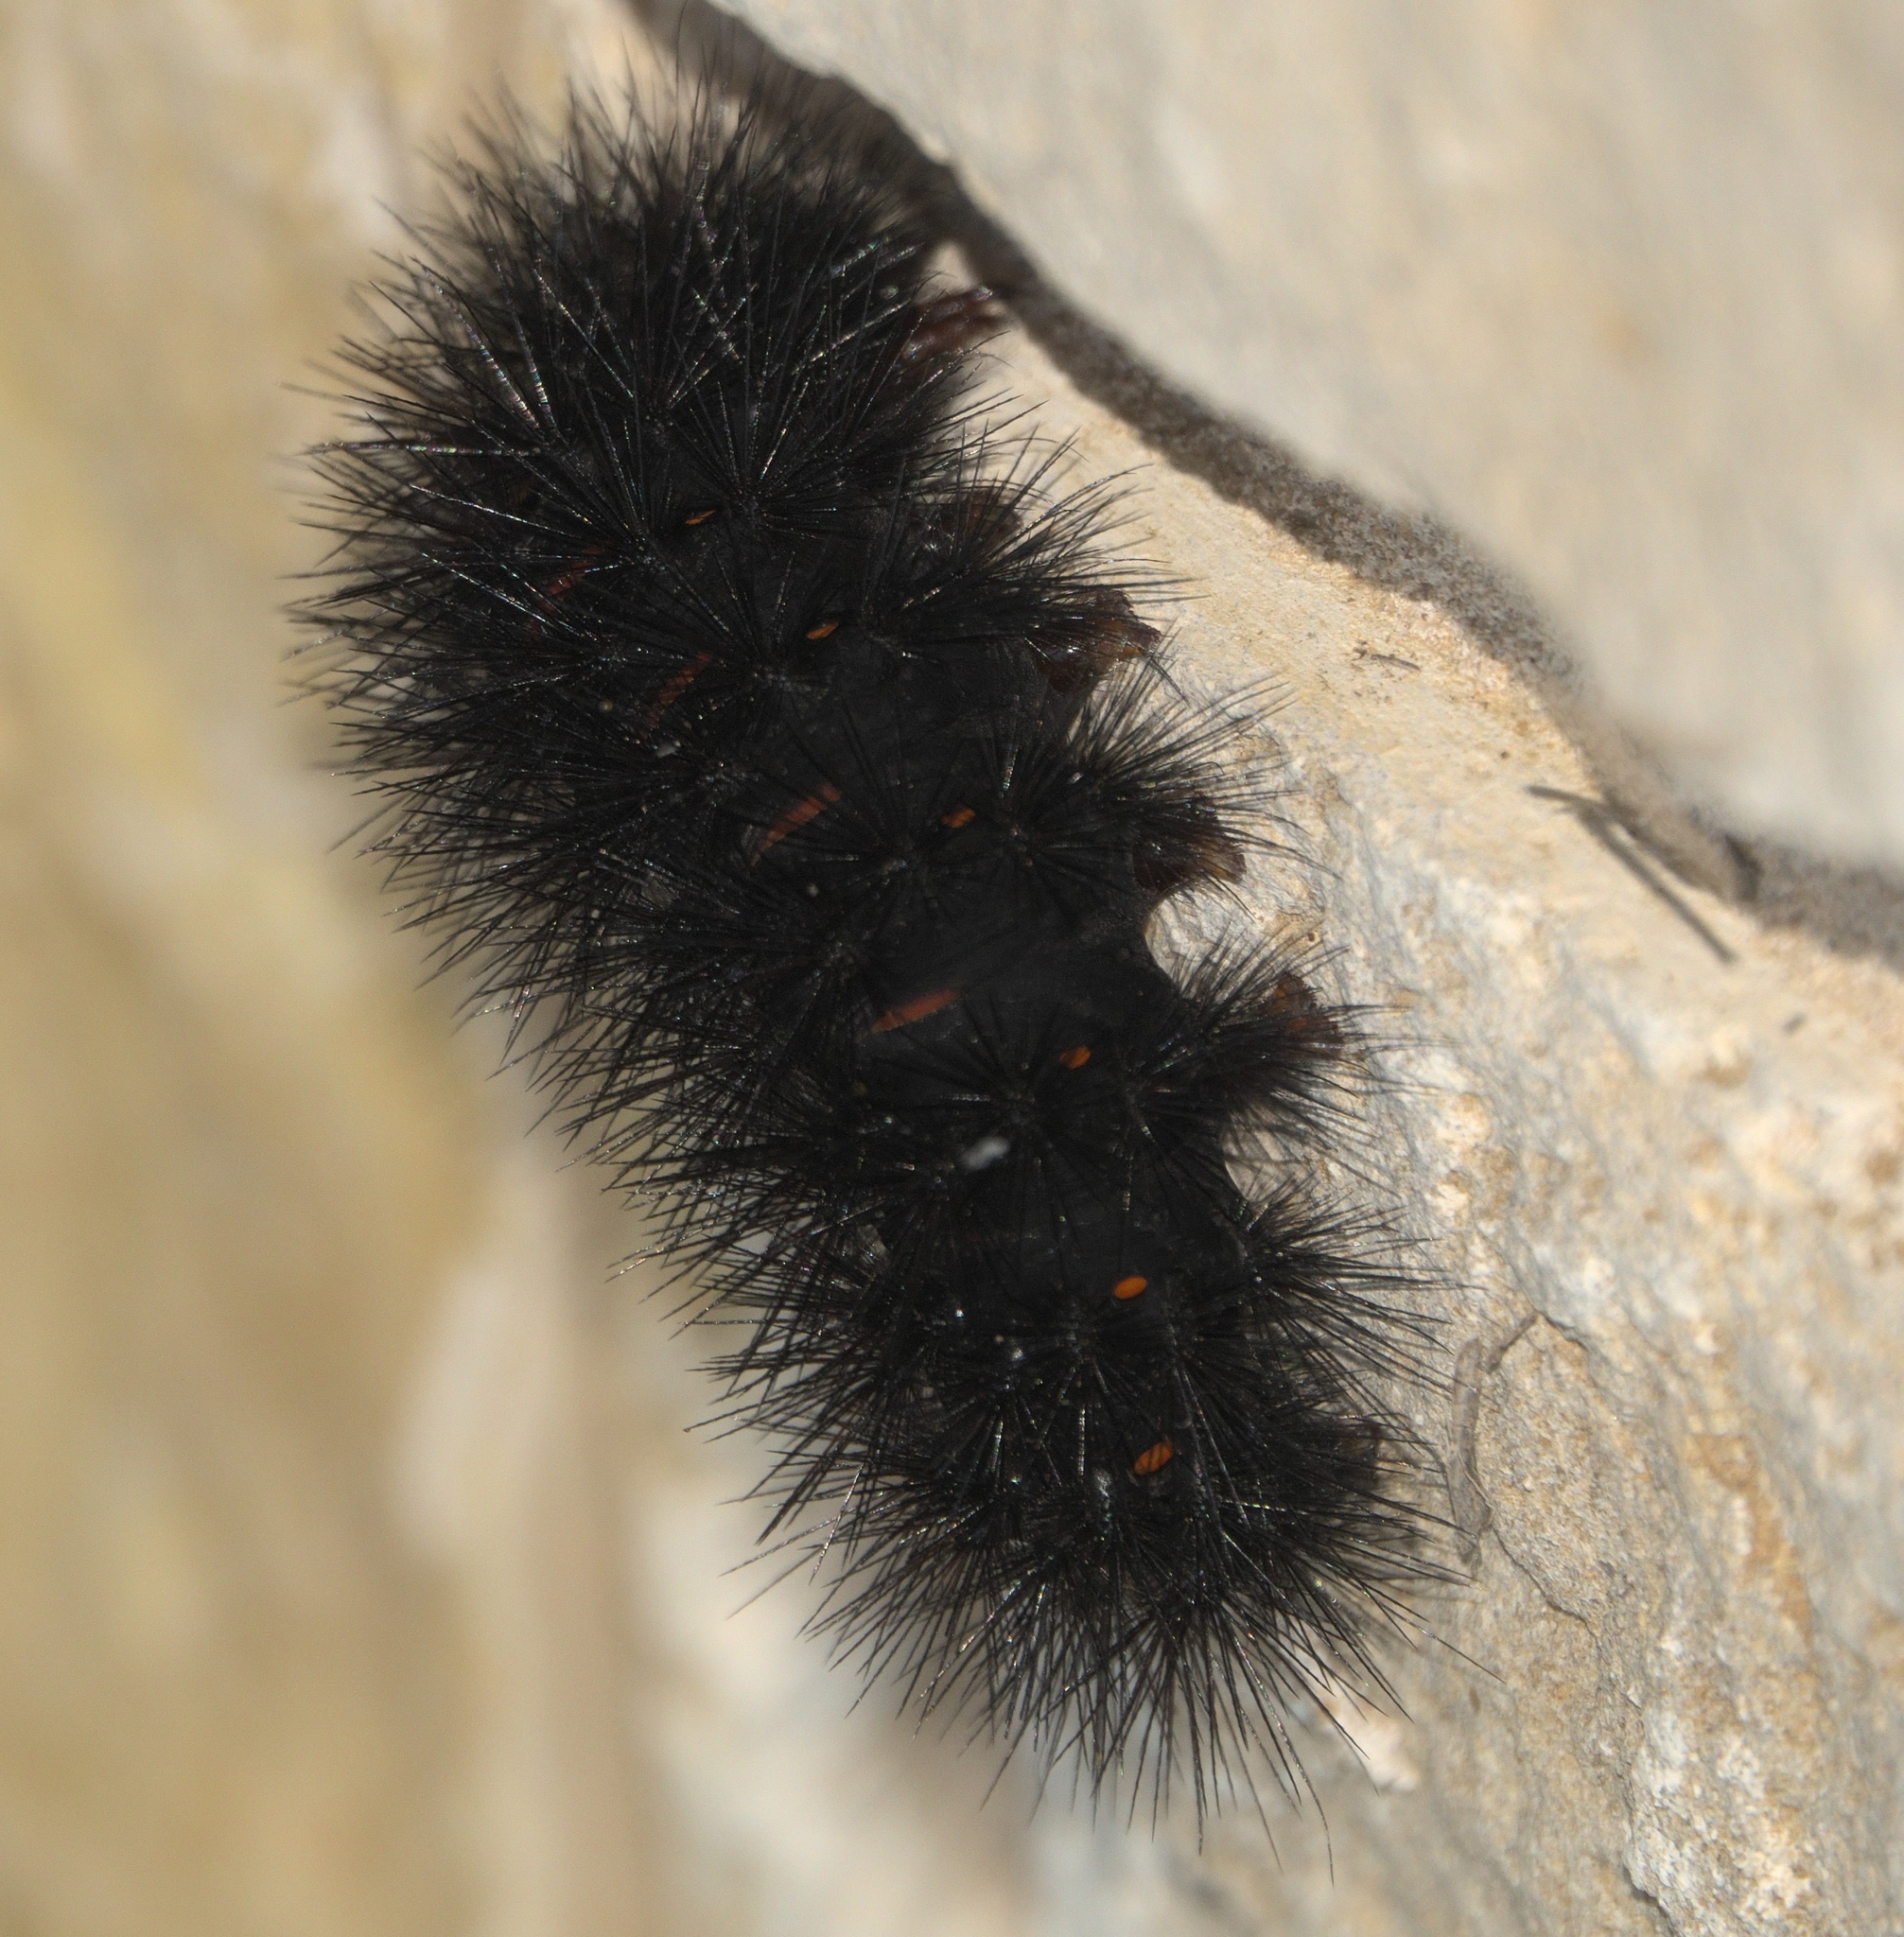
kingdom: Animalia
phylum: Arthropoda
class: Insecta
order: Lepidoptera
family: Erebidae
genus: Hypercompe
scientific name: Hypercompe scribonia
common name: Giant leopard moth
